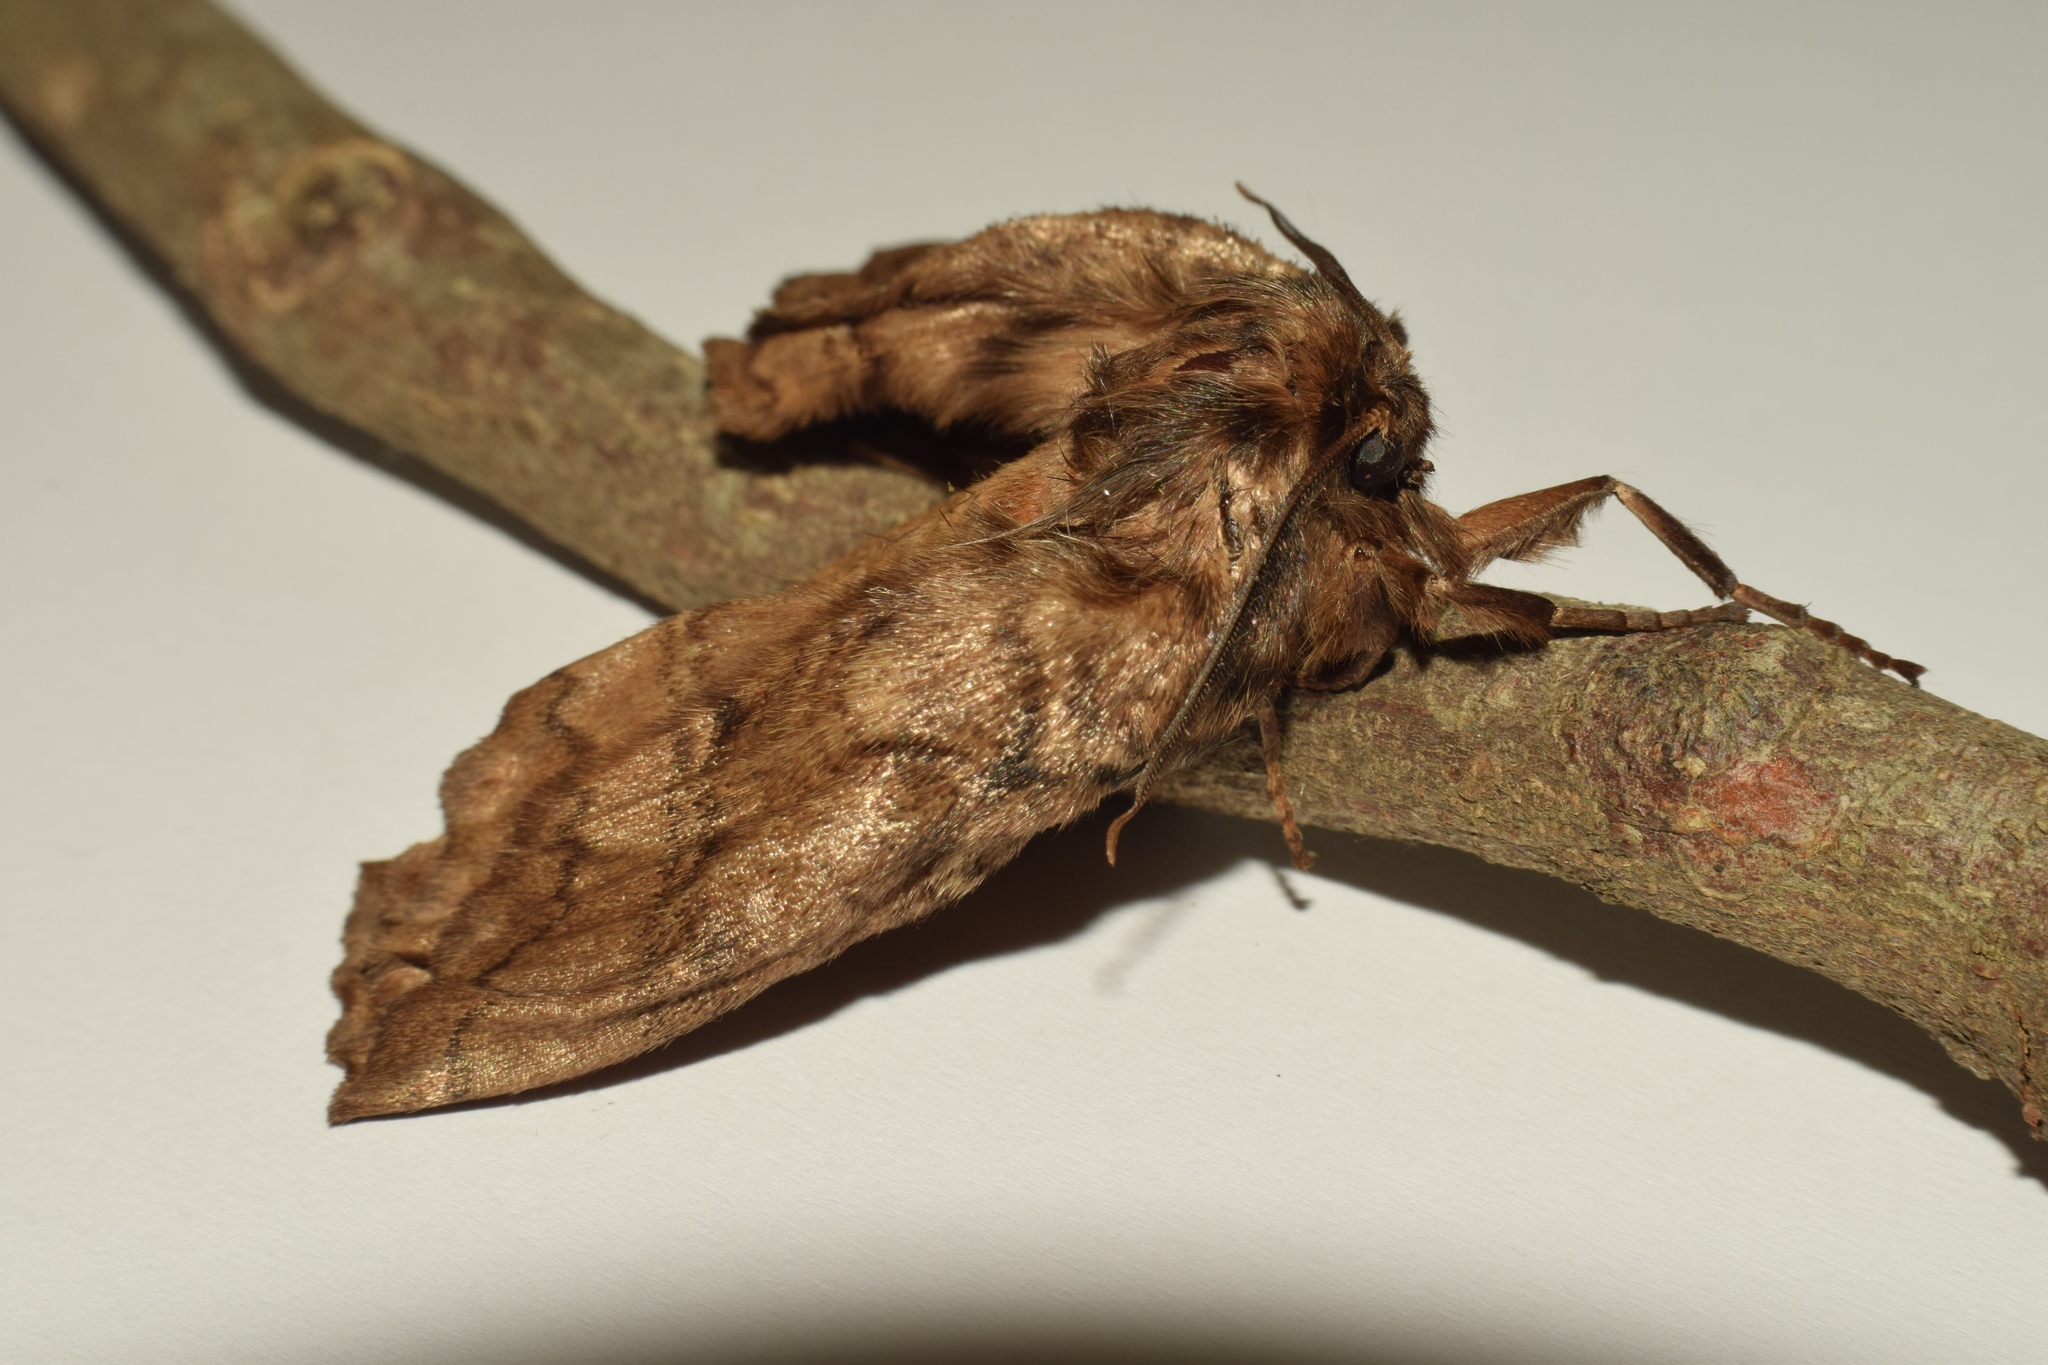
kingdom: Animalia
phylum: Arthropoda
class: Insecta
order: Lepidoptera
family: Eupterotidae
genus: Striphnopteryx
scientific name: Striphnopteryx edulis
